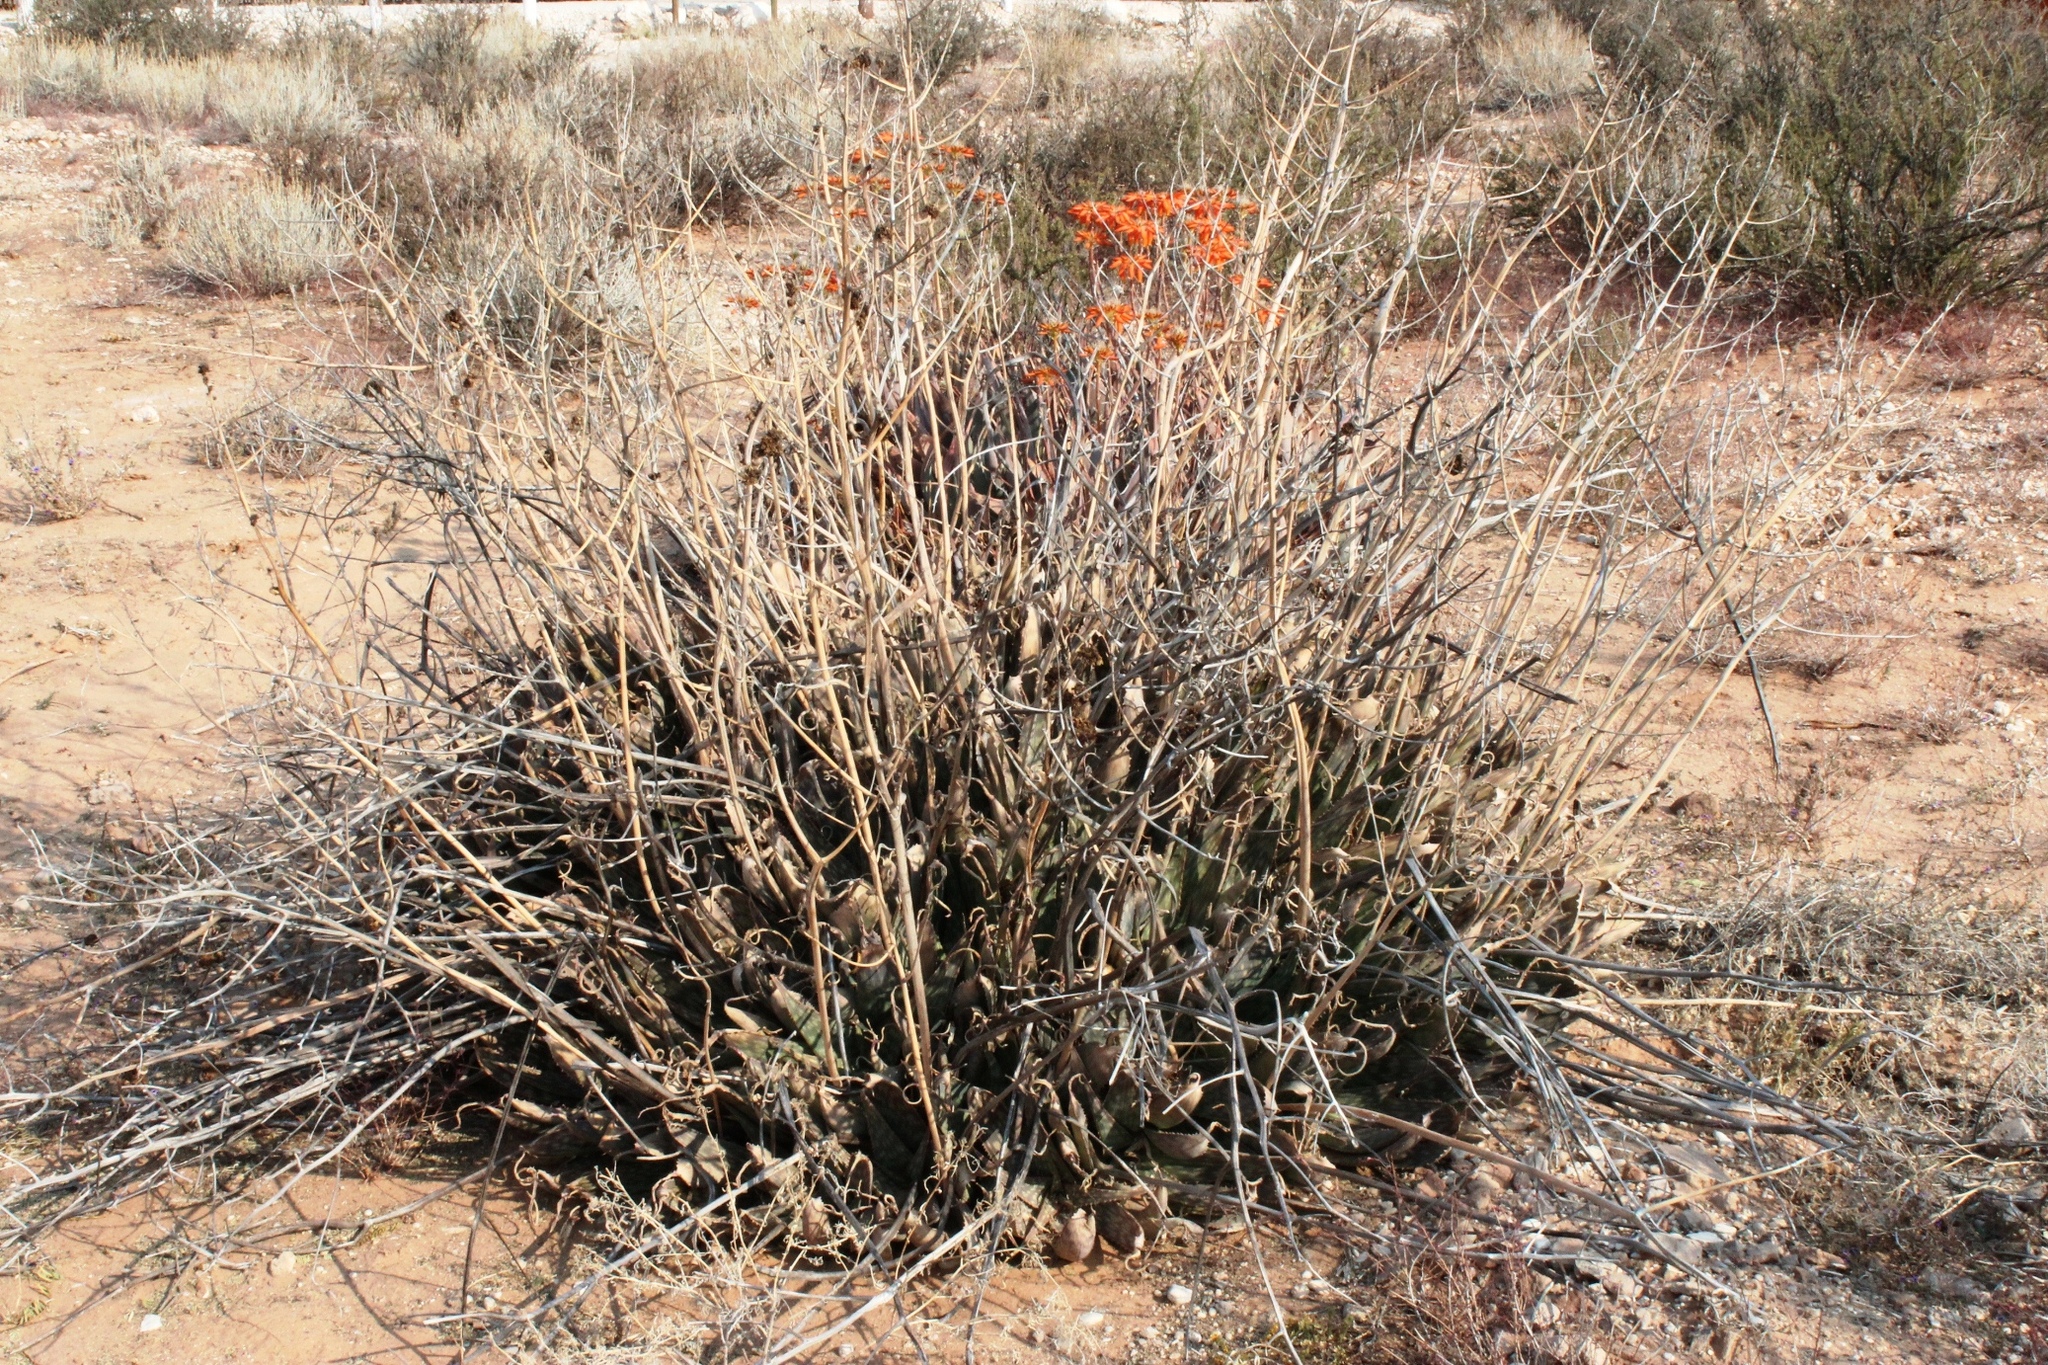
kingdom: Plantae
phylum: Tracheophyta
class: Liliopsida
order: Asparagales
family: Asphodelaceae
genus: Aloe
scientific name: Aloe hereroensis
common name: Herero aloe
